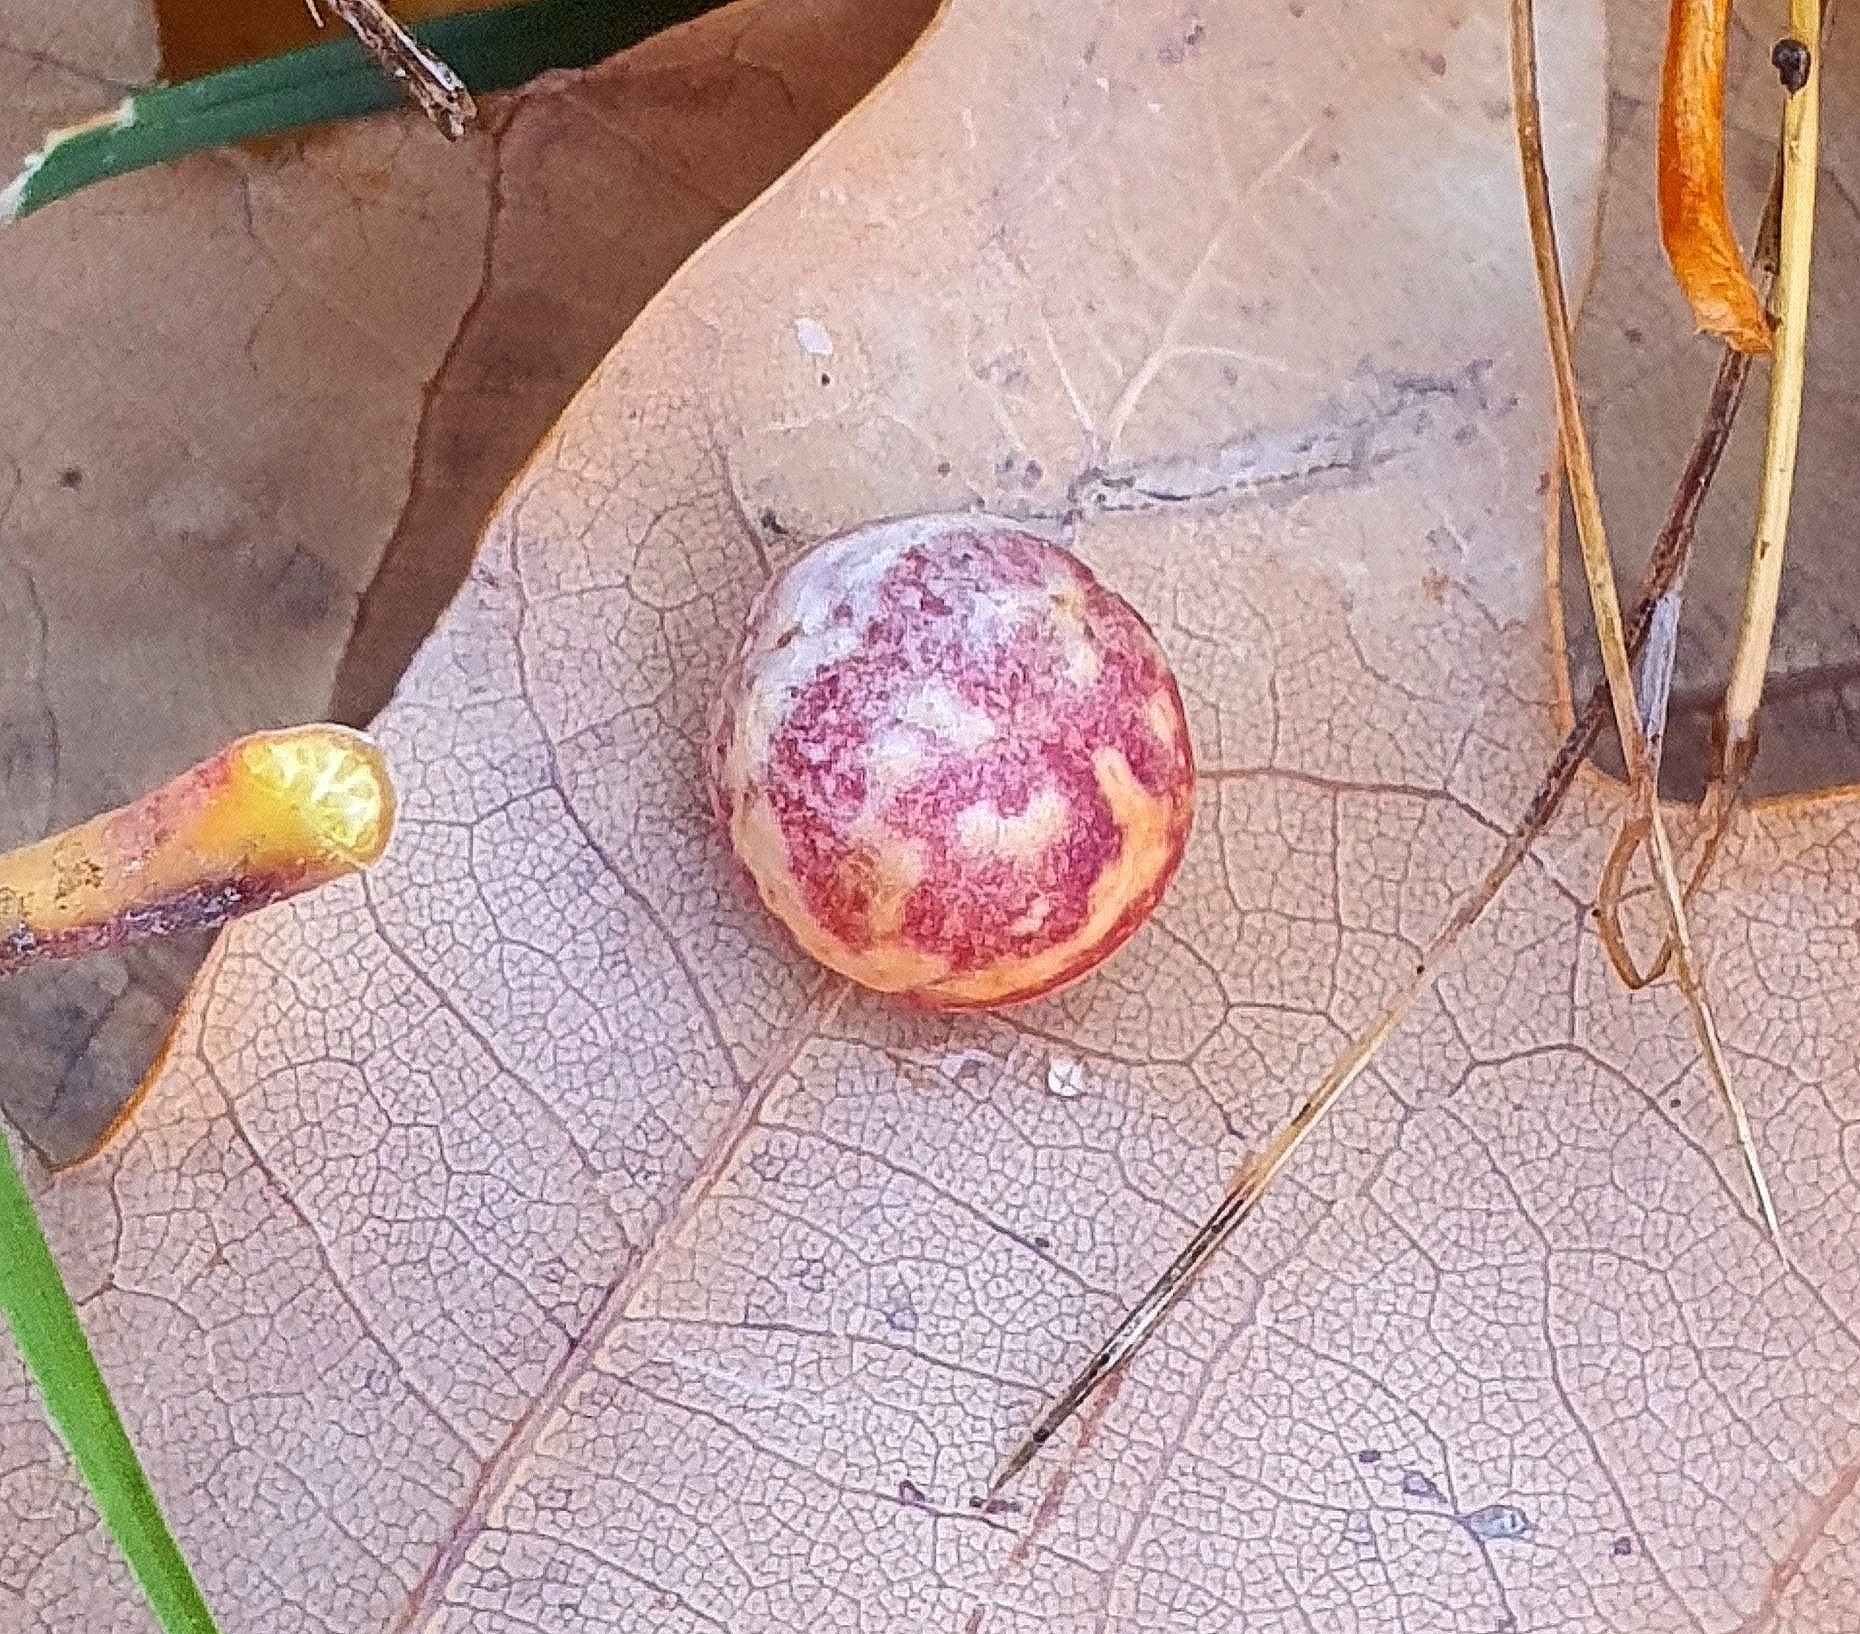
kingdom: Animalia
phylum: Arthropoda
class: Insecta
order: Hymenoptera
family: Cynipidae
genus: Cynips
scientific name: Cynips longiventris
